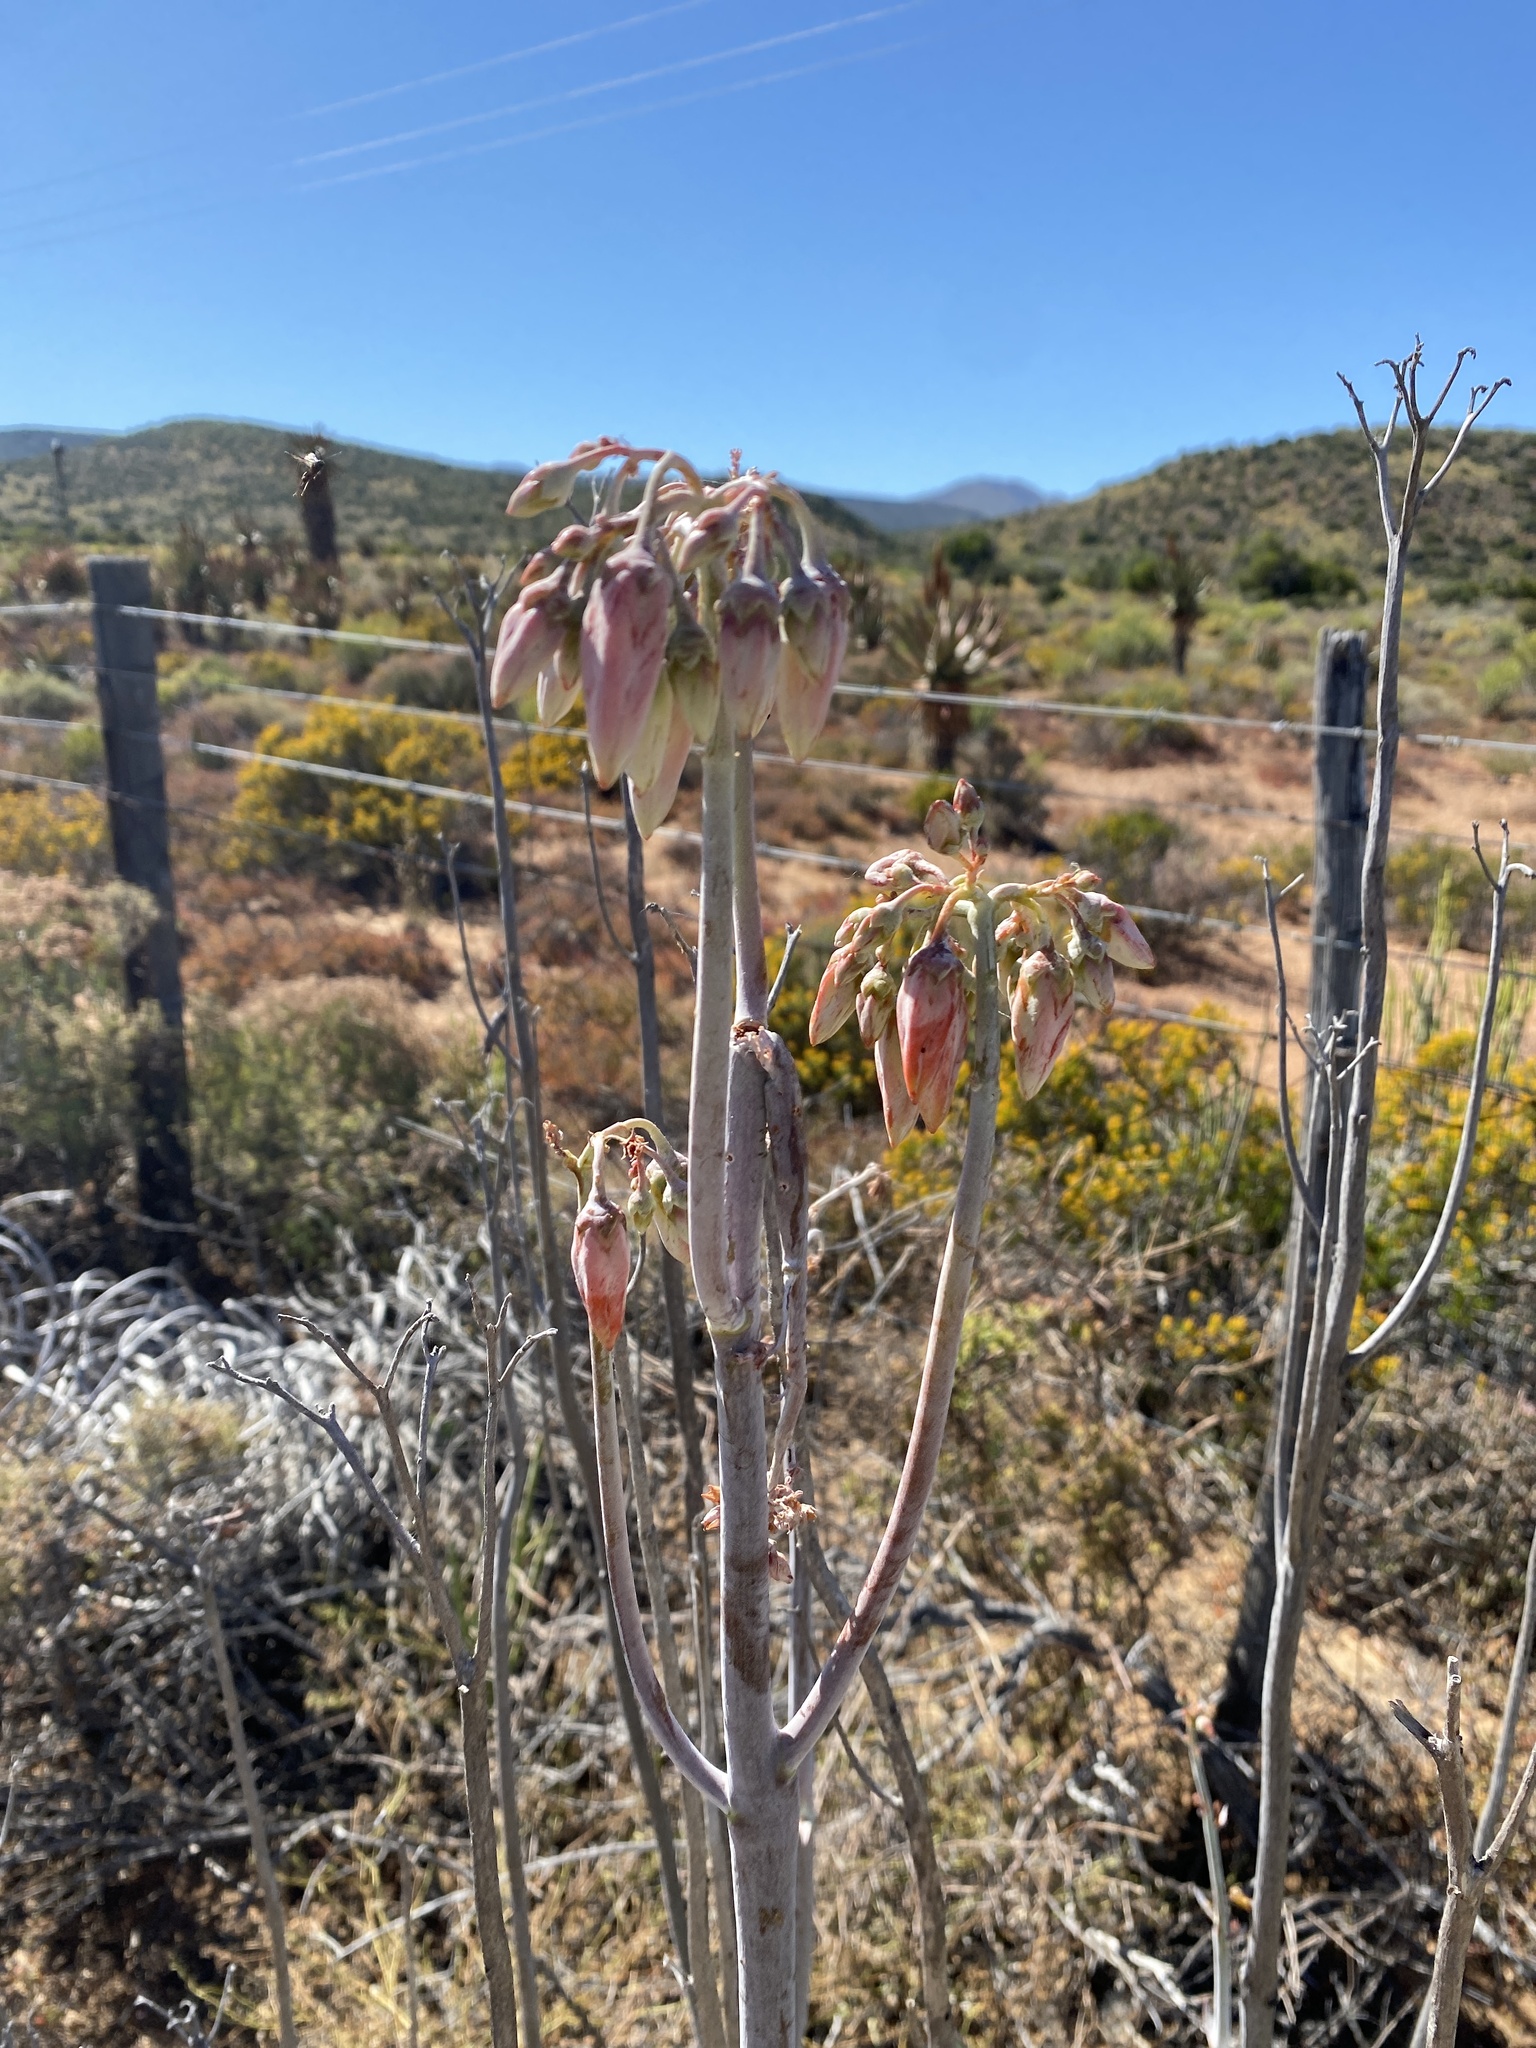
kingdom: Plantae
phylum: Tracheophyta
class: Magnoliopsida
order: Saxifragales
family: Crassulaceae
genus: Cotyledon
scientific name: Cotyledon orbiculata
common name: Pig's ear
